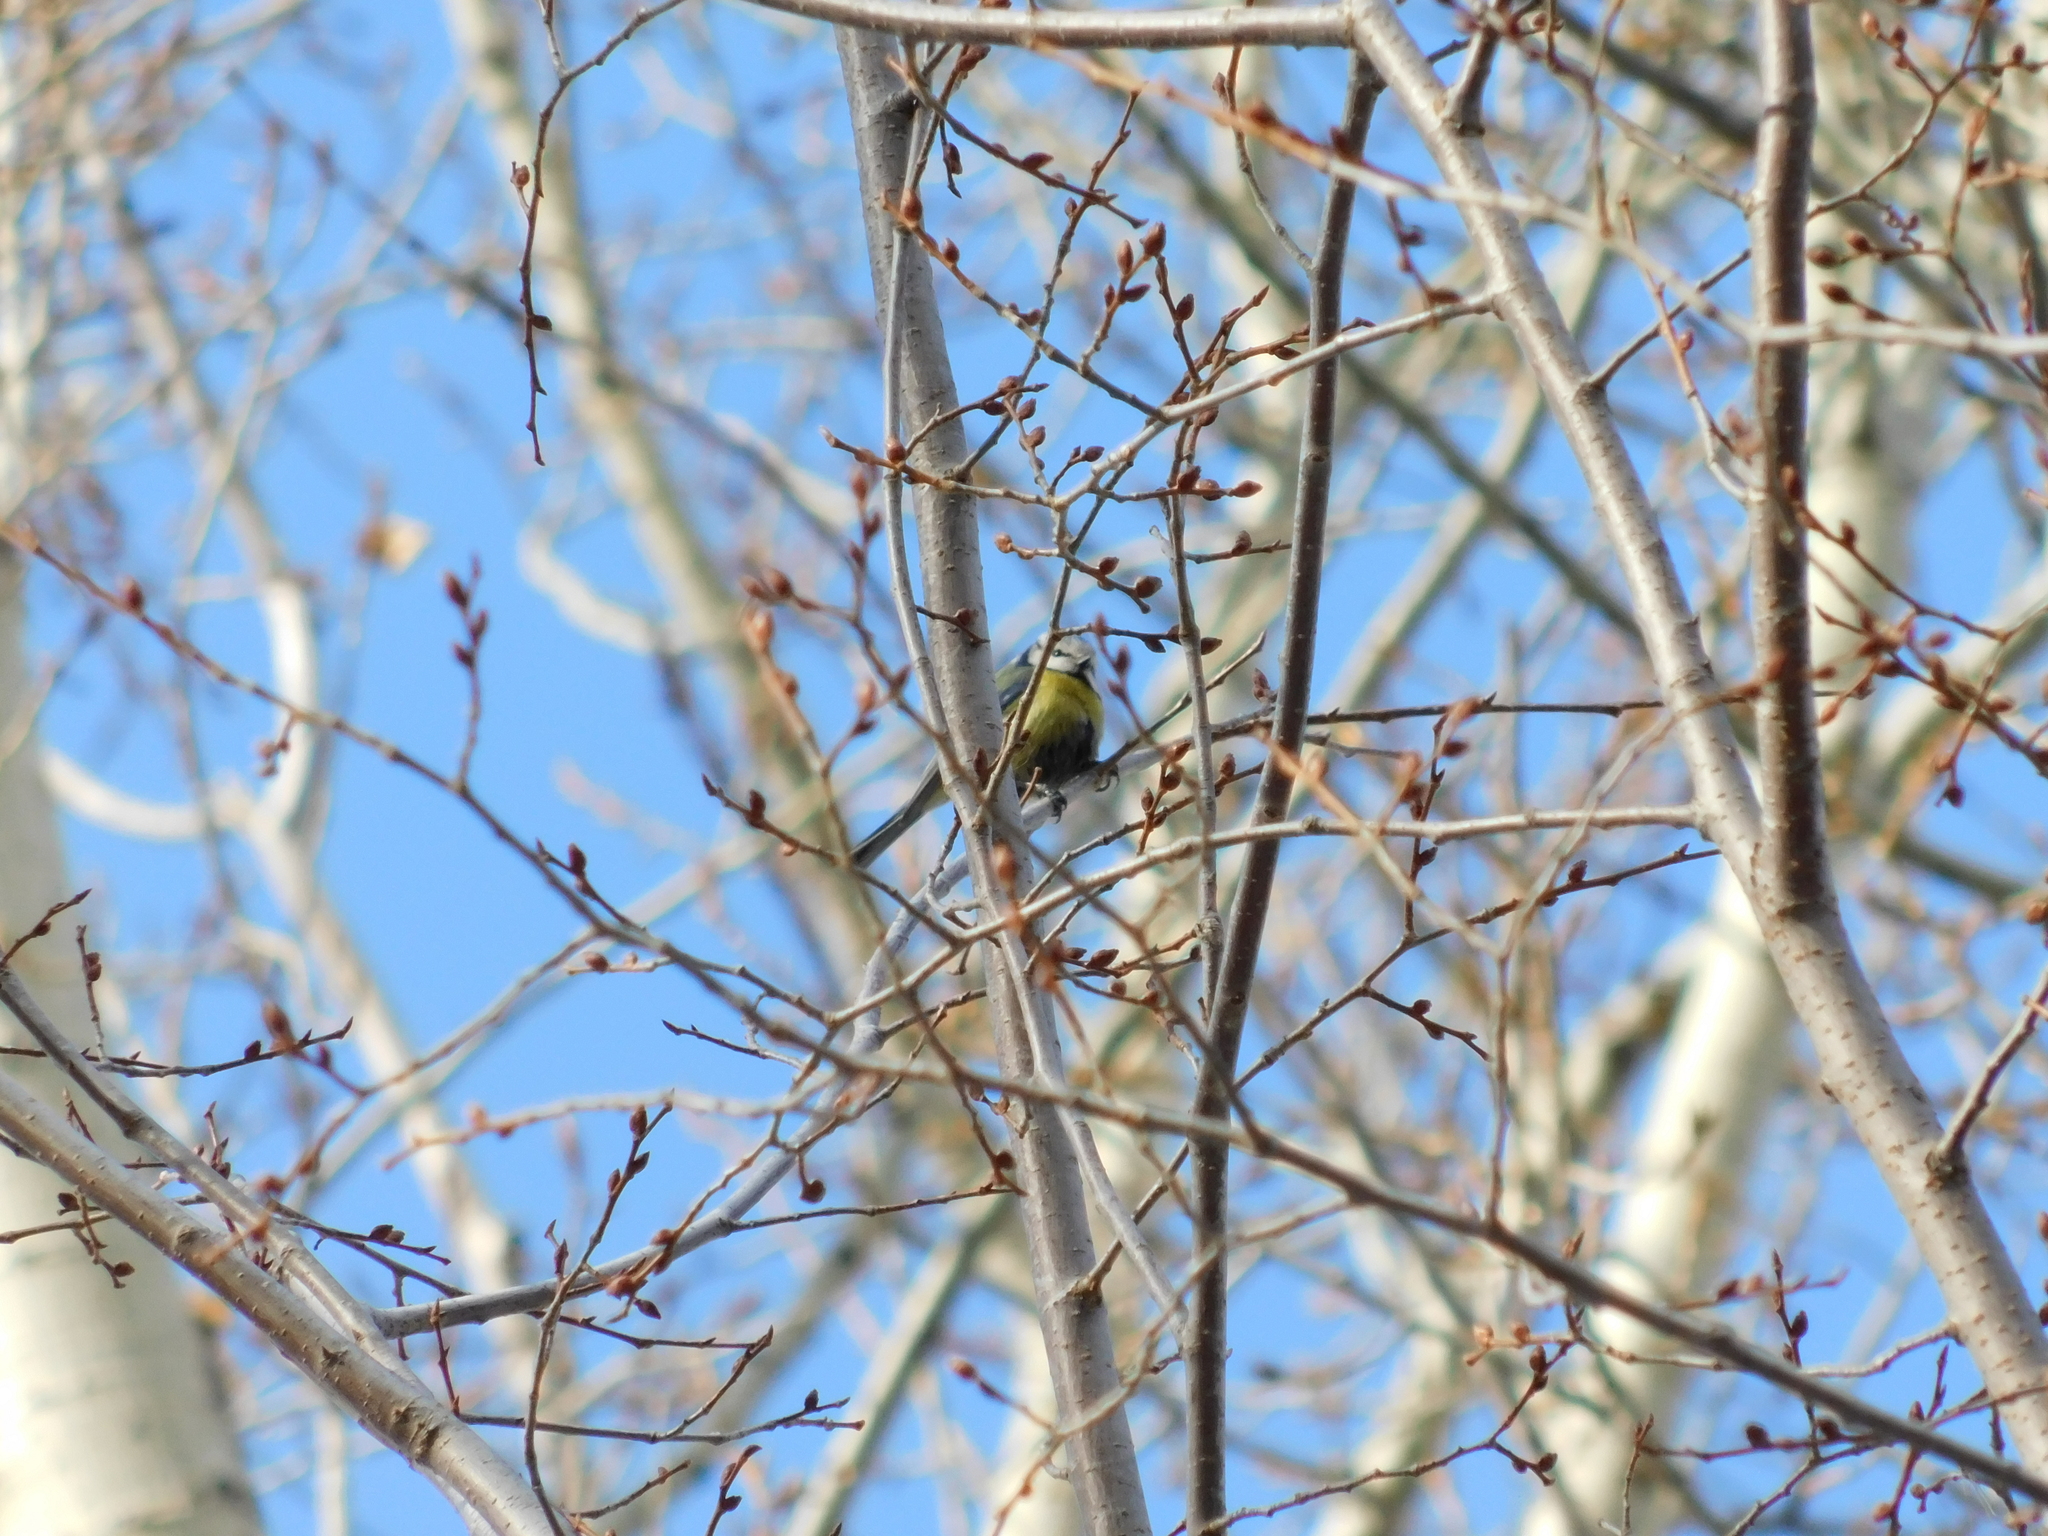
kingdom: Animalia
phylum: Chordata
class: Aves
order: Passeriformes
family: Paridae
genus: Cyanistes
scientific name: Cyanistes caeruleus
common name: Eurasian blue tit
